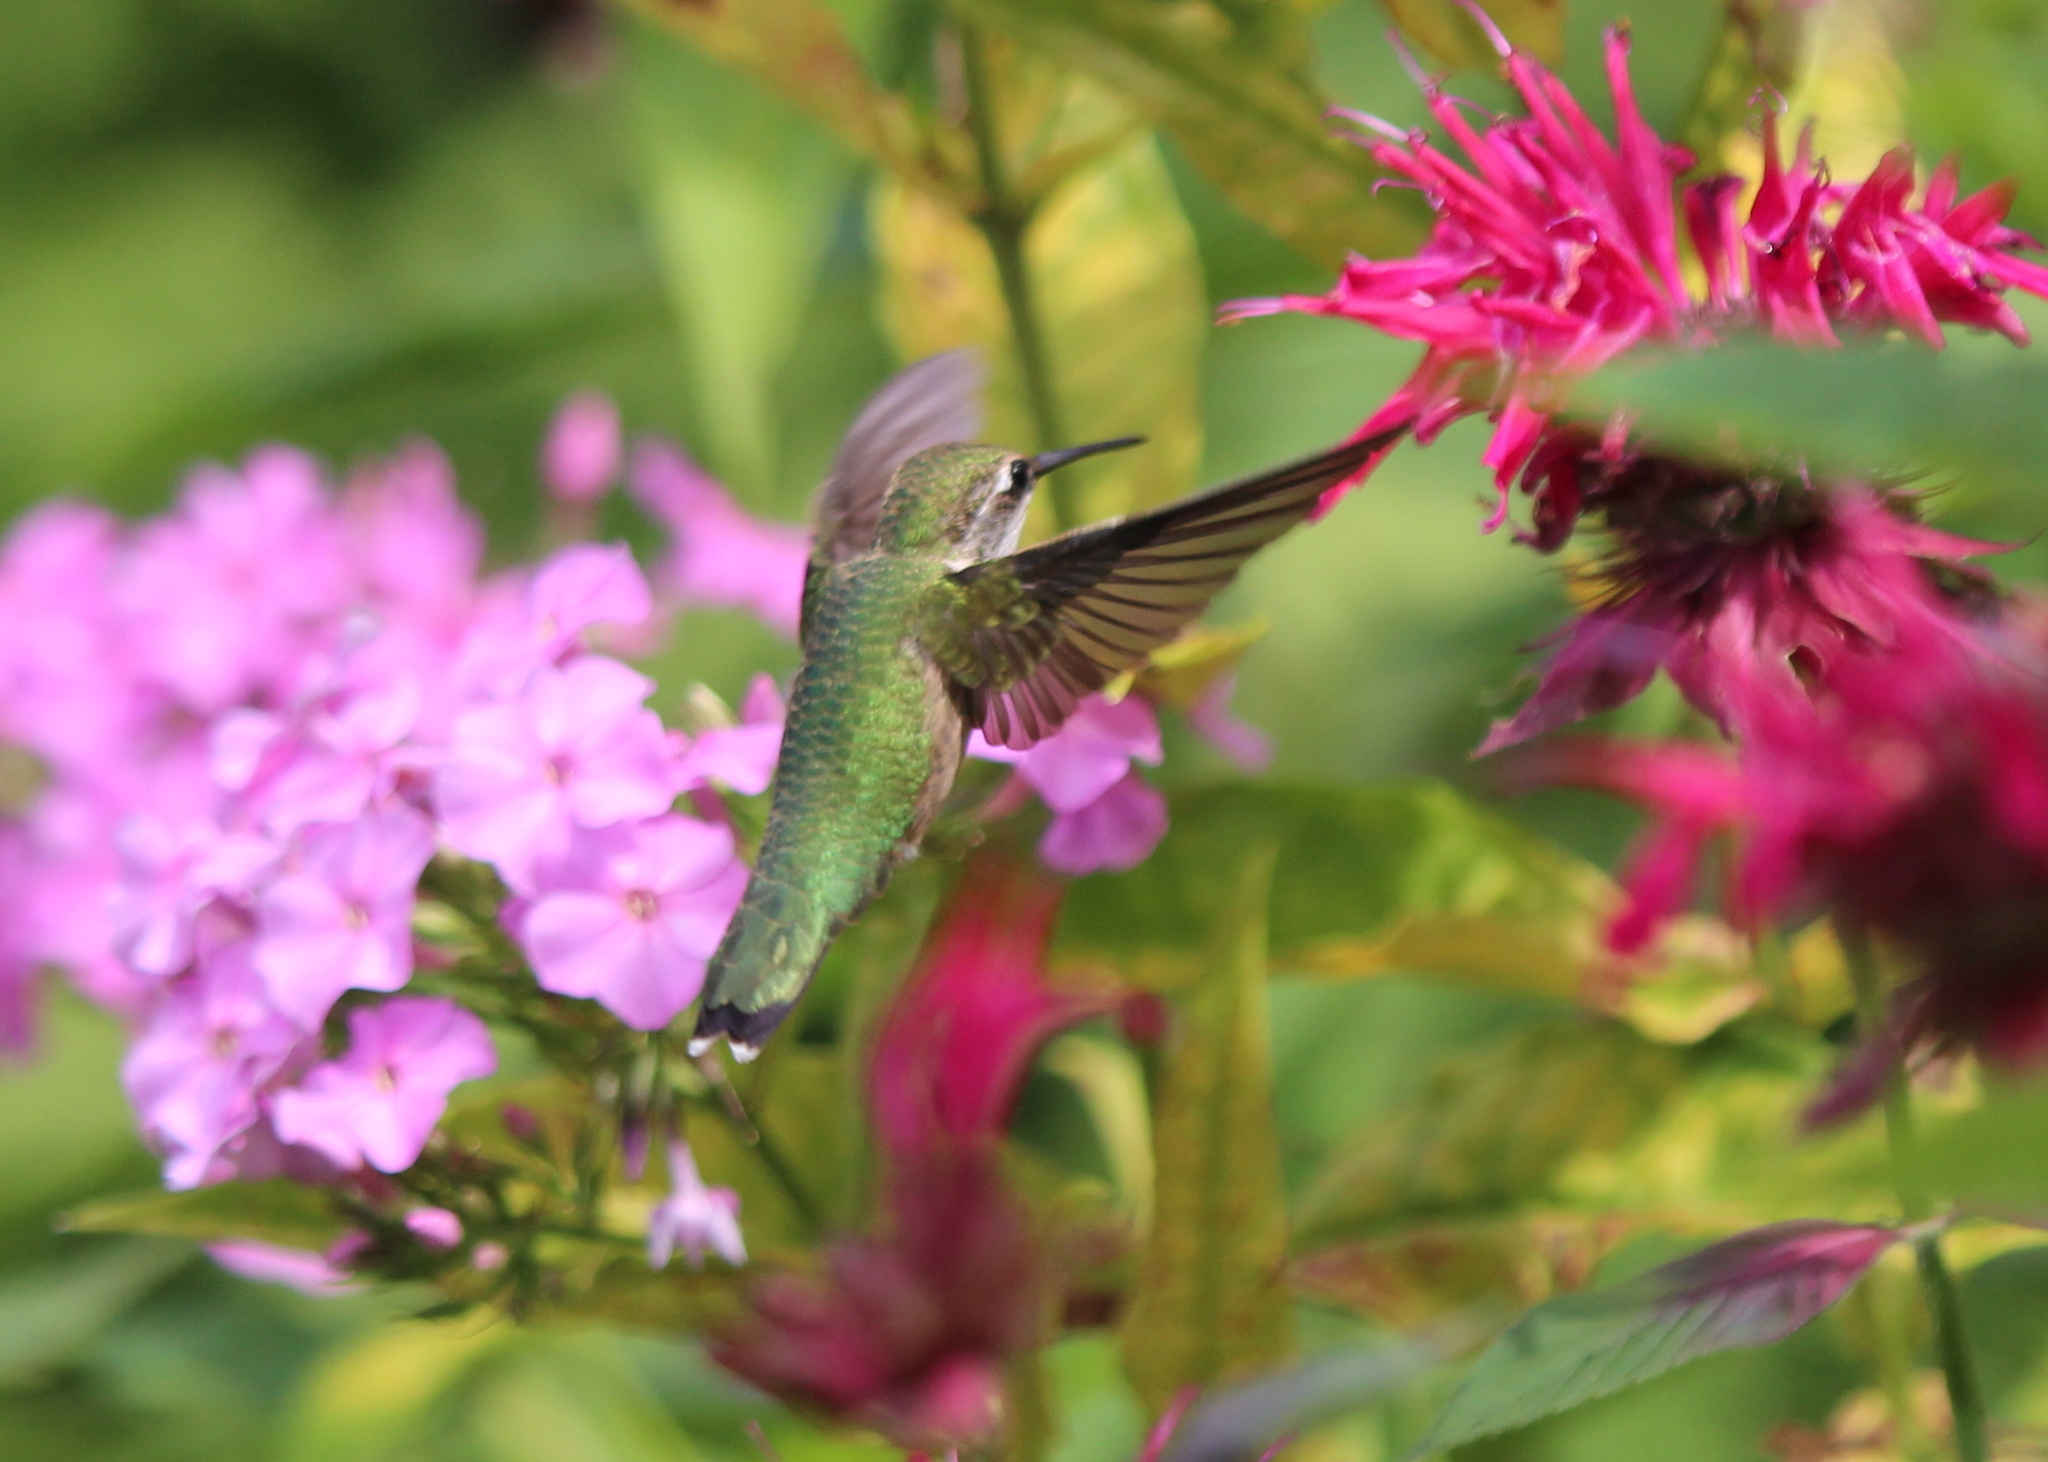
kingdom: Animalia
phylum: Chordata
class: Aves
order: Apodiformes
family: Trochilidae
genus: Archilochus
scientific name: Archilochus colubris
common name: Ruby-throated hummingbird
